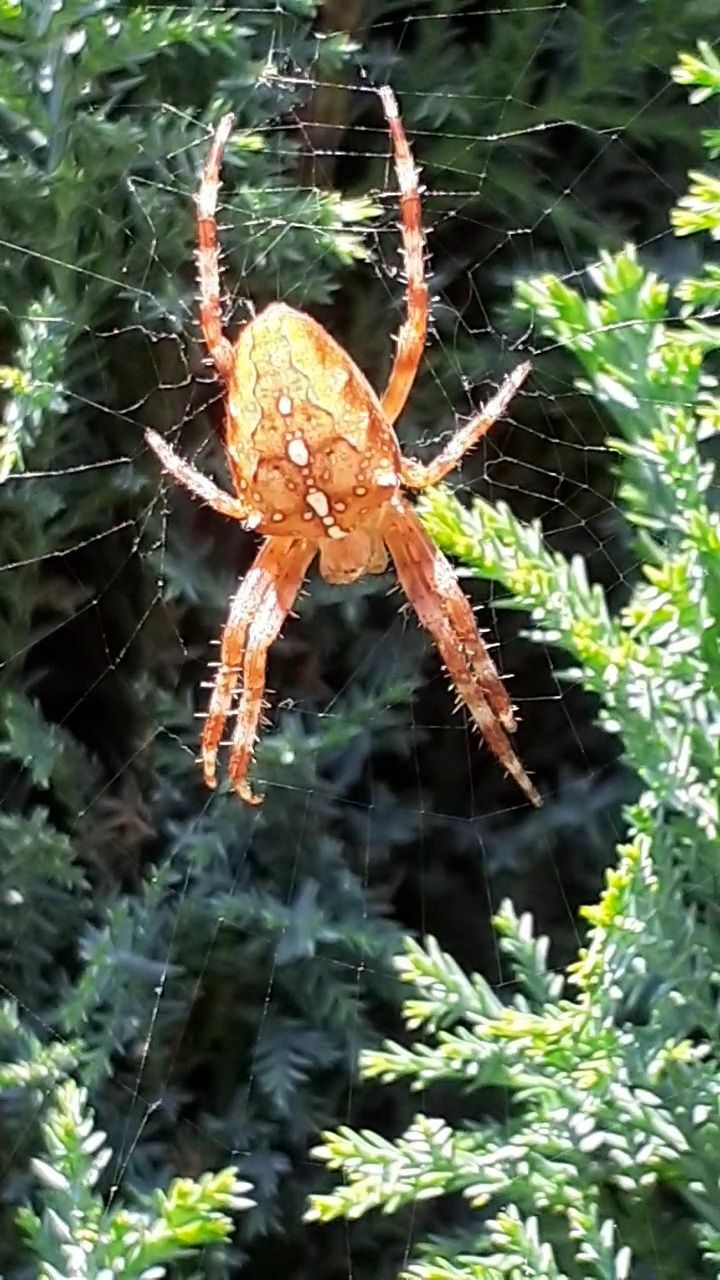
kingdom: Animalia
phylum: Arthropoda
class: Arachnida
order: Araneae
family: Araneidae
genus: Araneus
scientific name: Araneus diadematus
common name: Cross orbweaver
